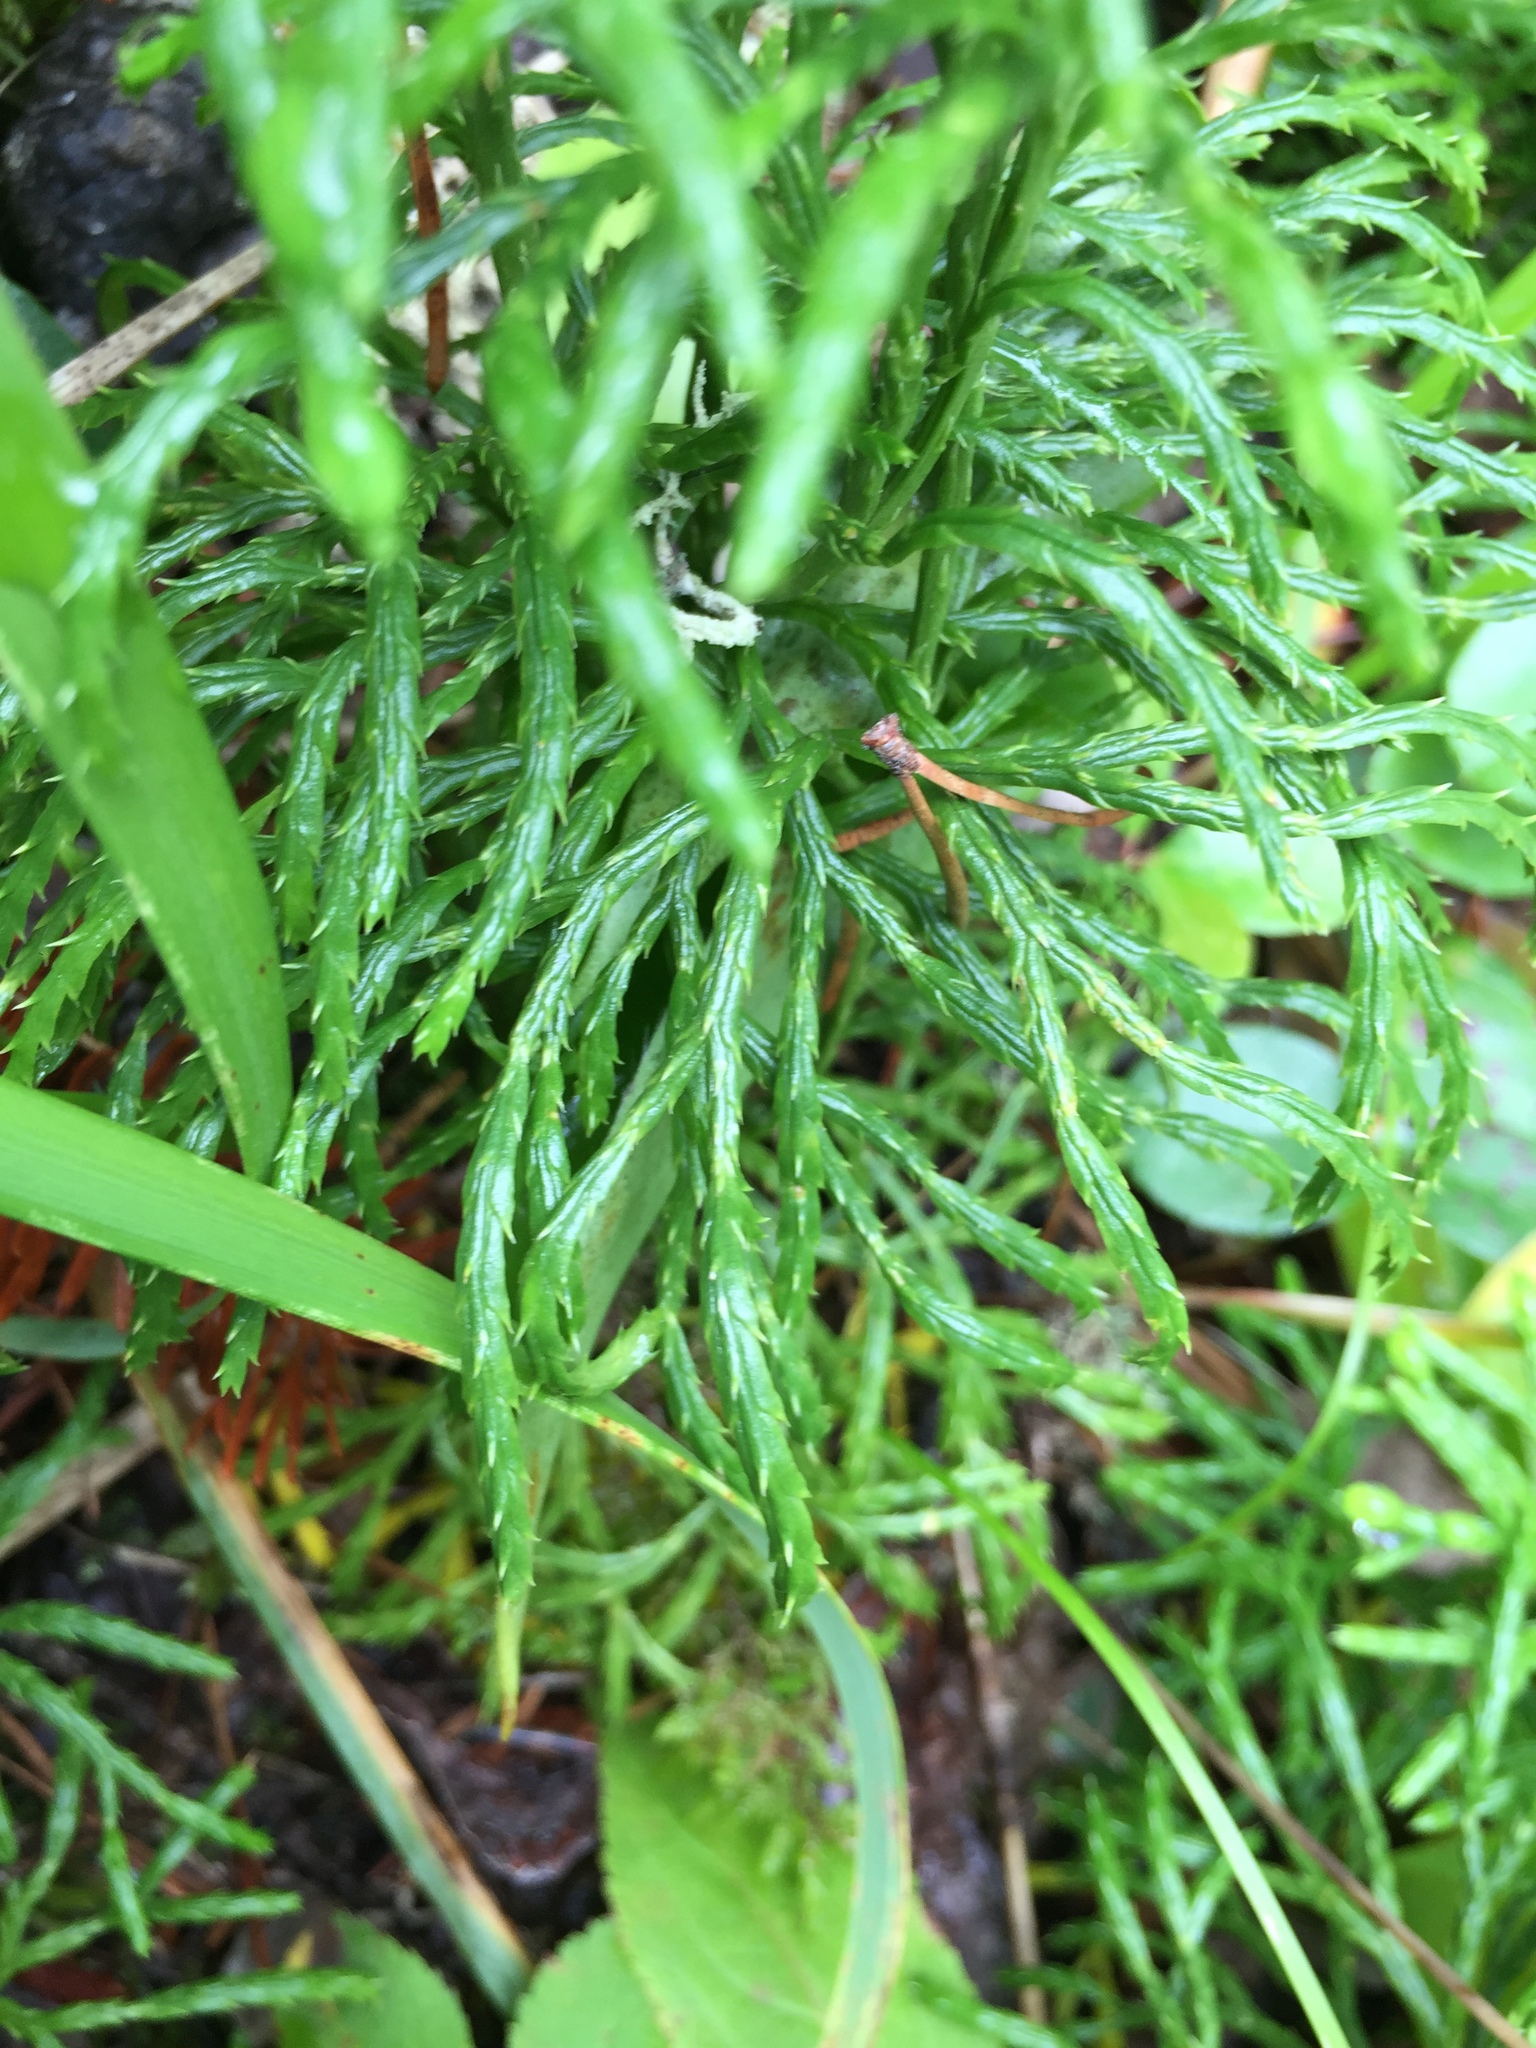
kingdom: Plantae
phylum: Tracheophyta
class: Lycopodiopsida
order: Lycopodiales
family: Lycopodiaceae
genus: Diphasiastrum
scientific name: Diphasiastrum complanatum
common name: Northern running-pine
